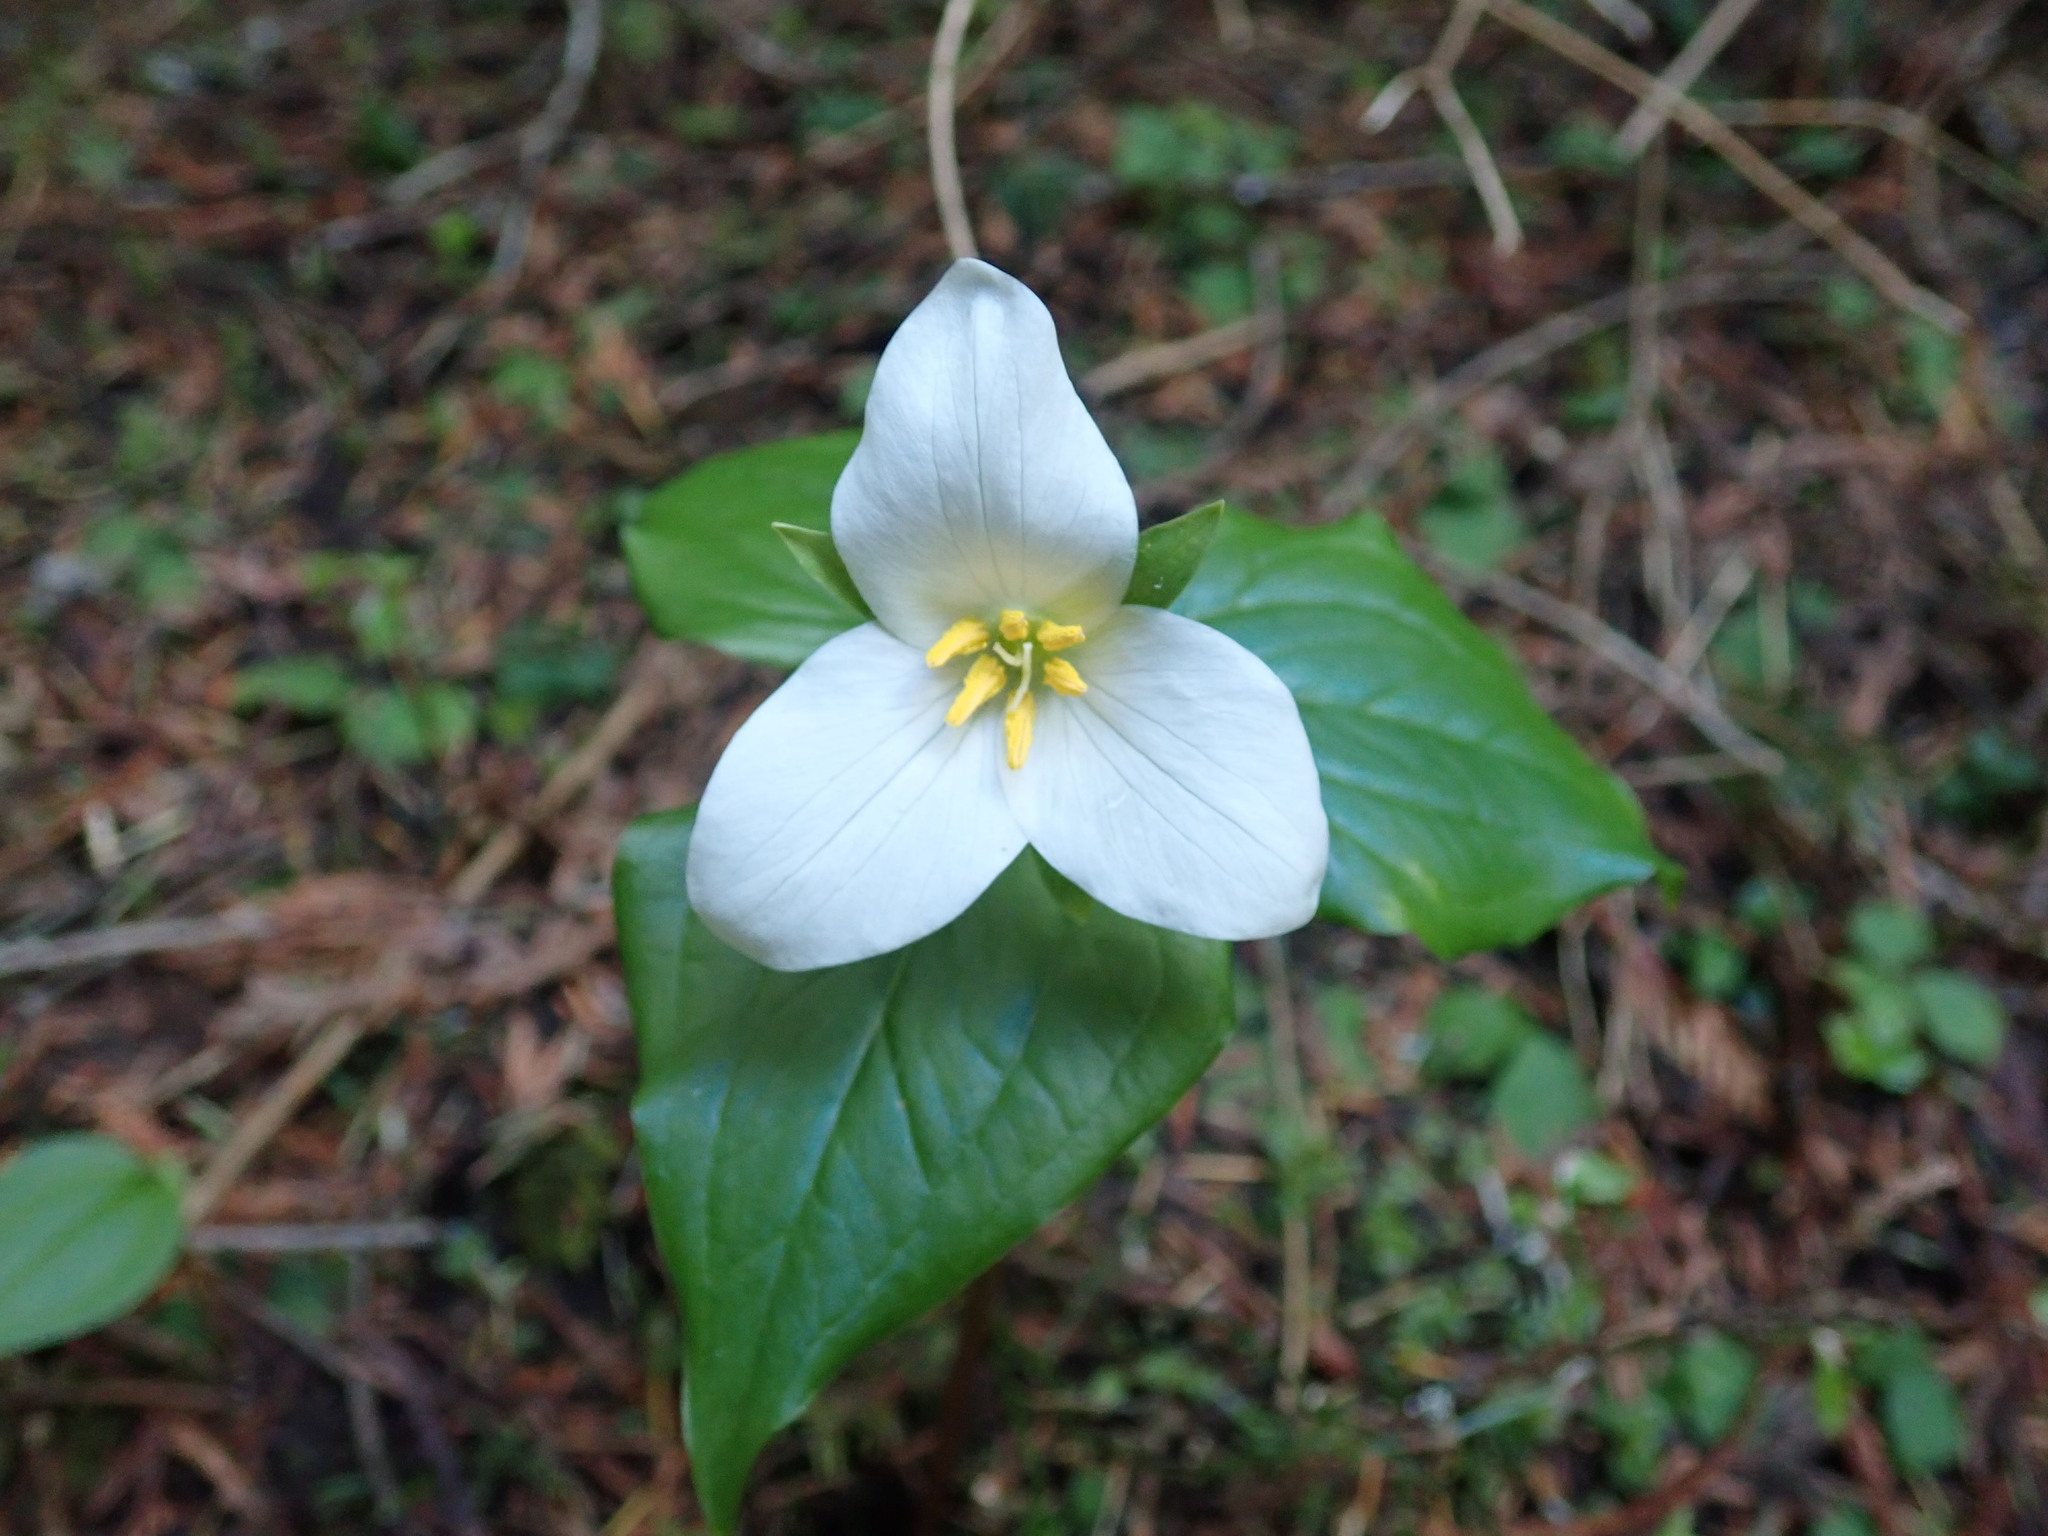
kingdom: Plantae
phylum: Tracheophyta
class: Liliopsida
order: Liliales
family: Melanthiaceae
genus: Trillium
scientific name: Trillium ovatum
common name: Pacific trillium
